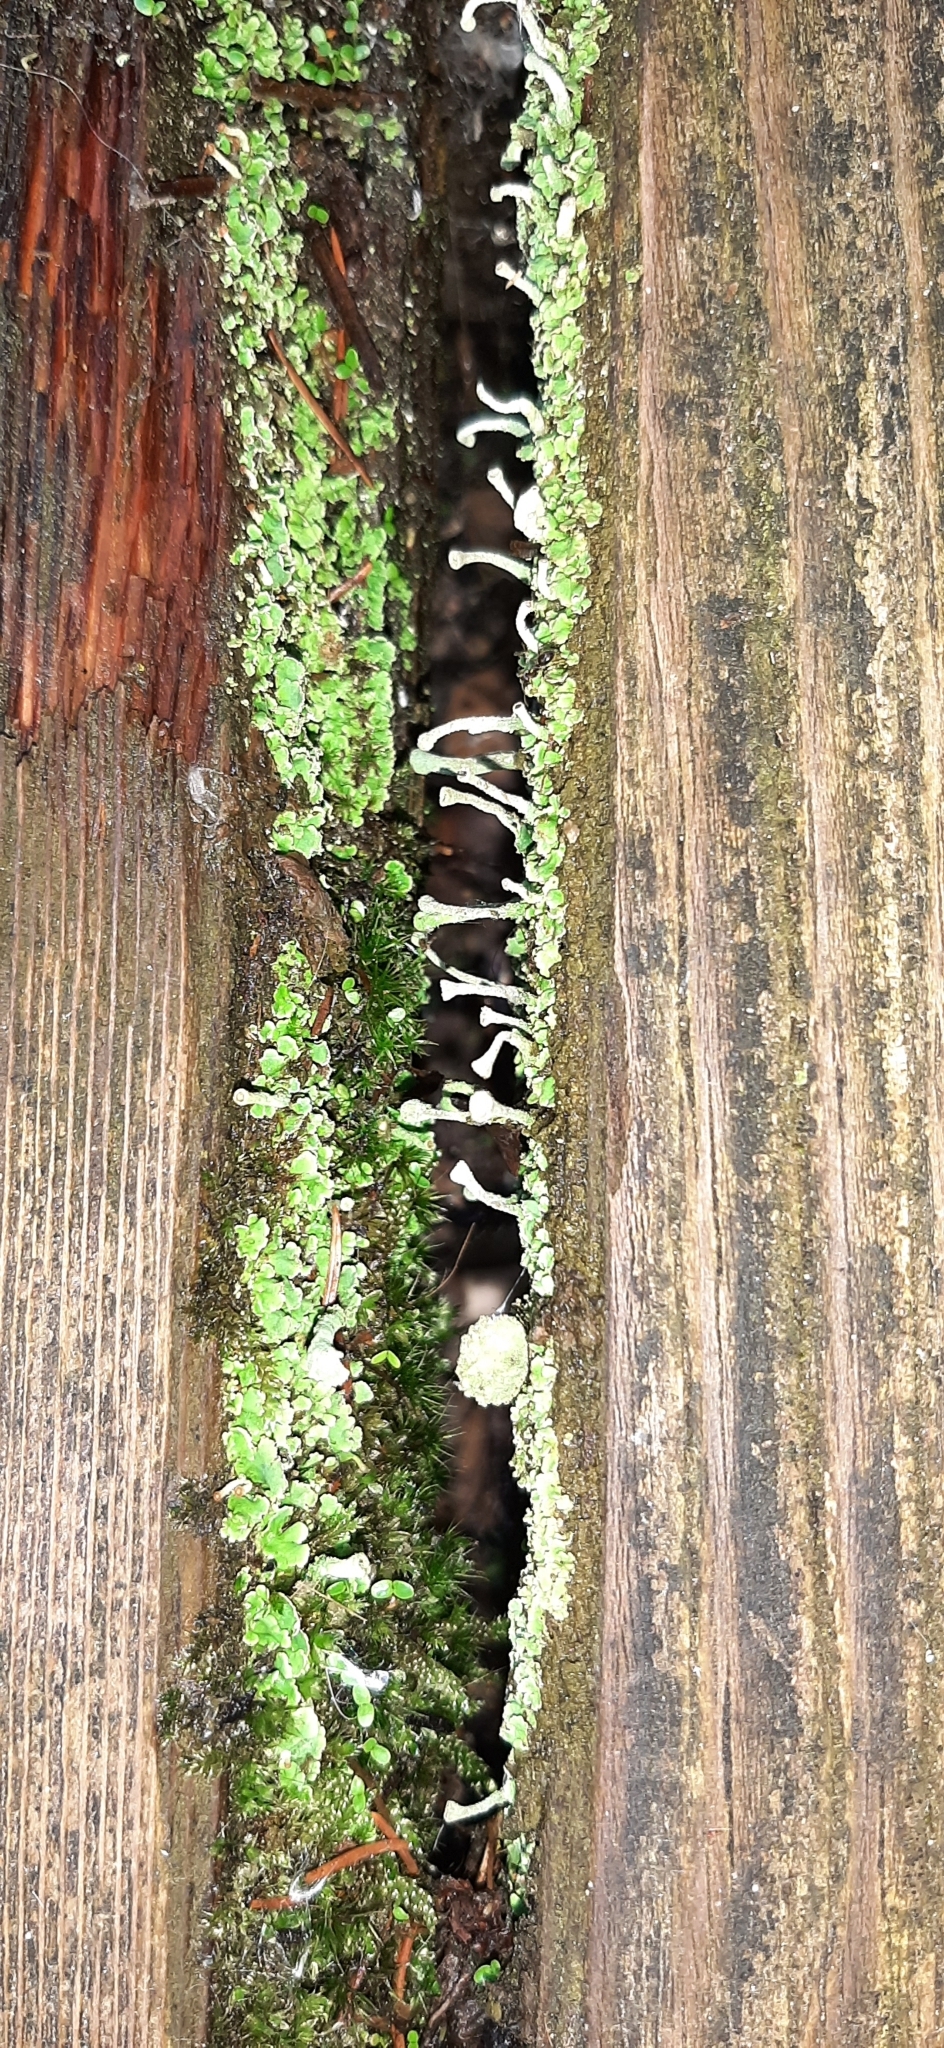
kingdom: Fungi
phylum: Ascomycota
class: Lecanoromycetes
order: Lecanorales
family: Cladoniaceae
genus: Cladonia
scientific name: Cladonia fimbriata
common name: Powdered trumpet lichen
